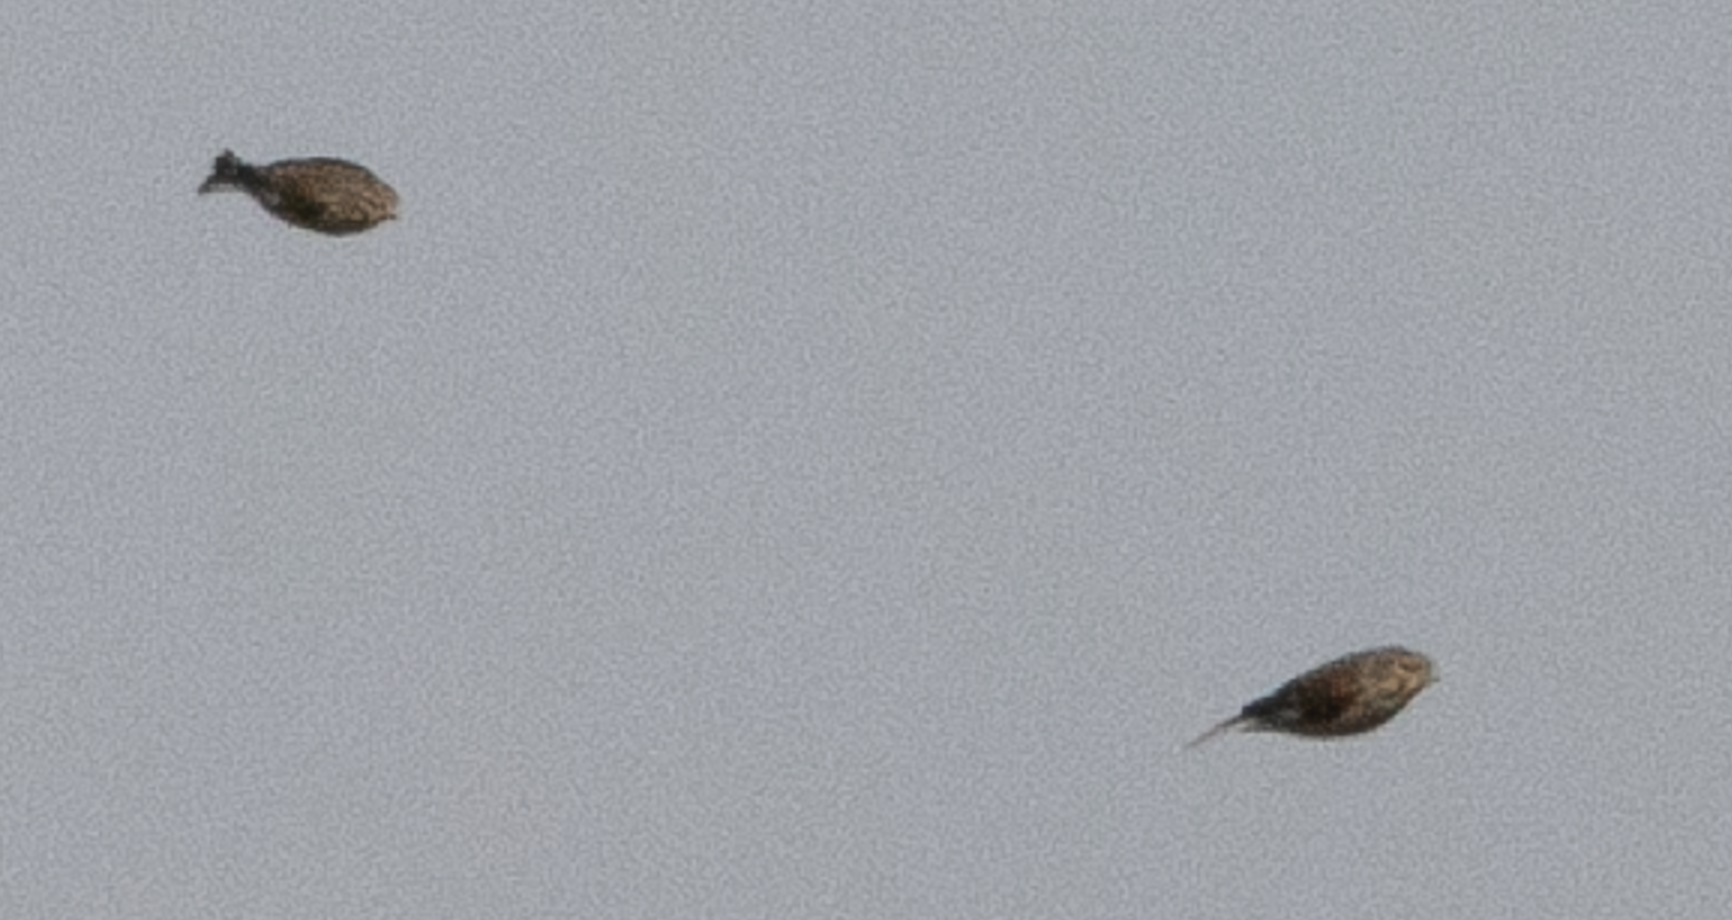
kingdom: Animalia
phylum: Chordata
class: Aves
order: Passeriformes
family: Fringillidae
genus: Linaria
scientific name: Linaria cannabina
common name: Common linnet
